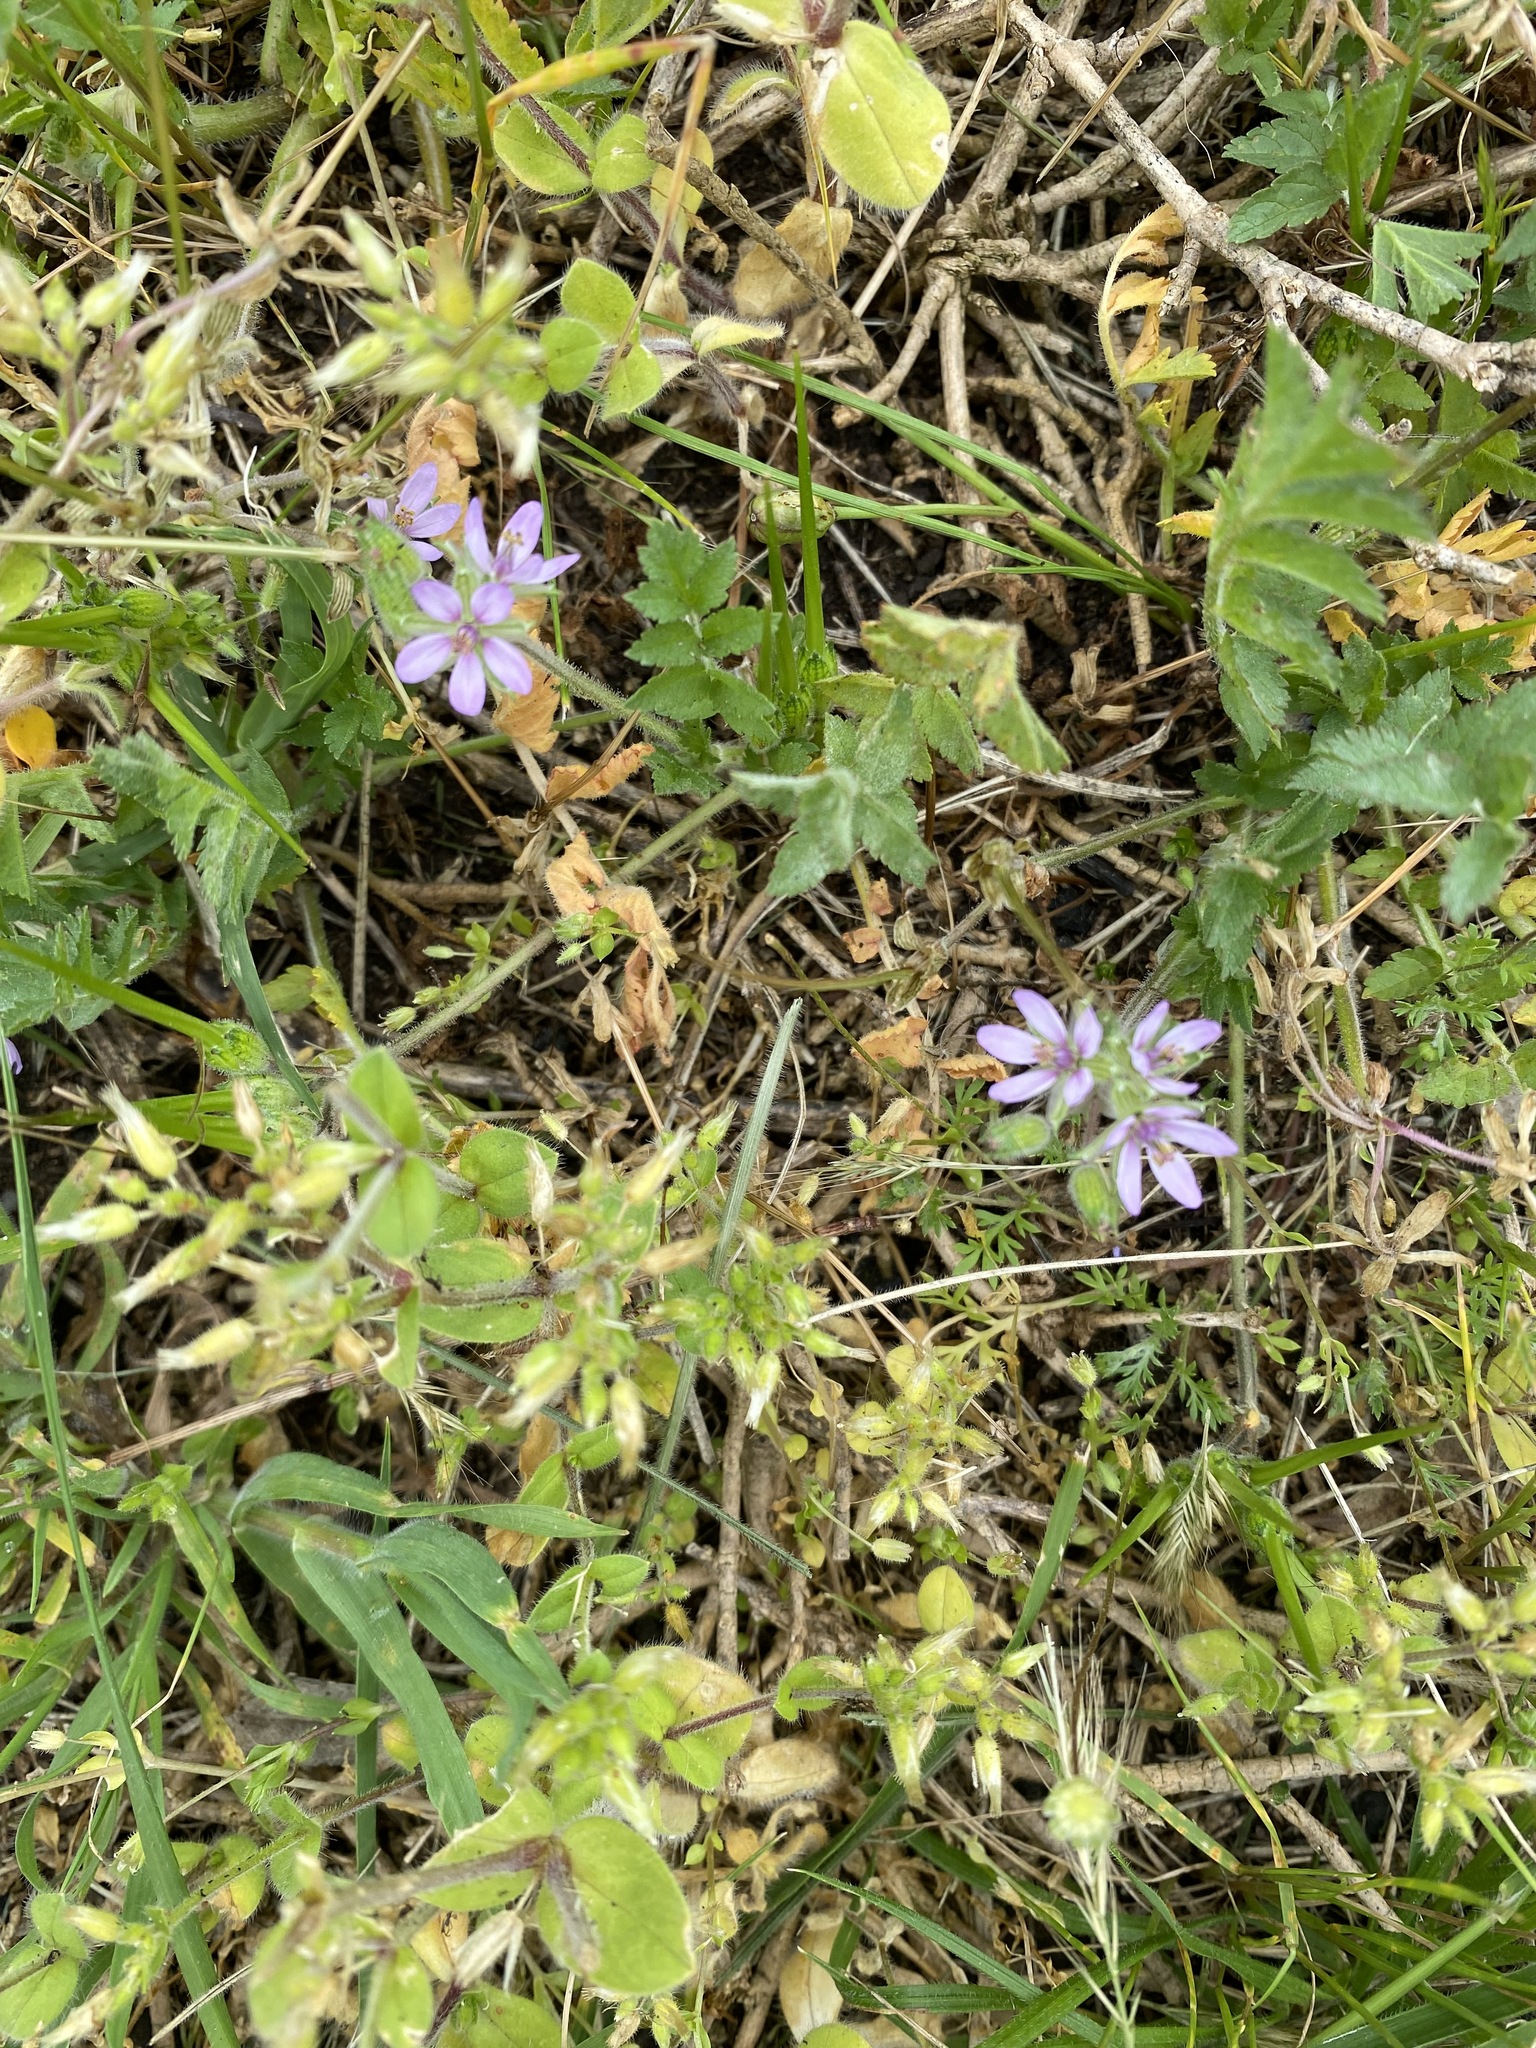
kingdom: Plantae
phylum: Tracheophyta
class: Magnoliopsida
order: Geraniales
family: Geraniaceae
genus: Erodium
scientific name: Erodium moschatum
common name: Musk stork's-bill
